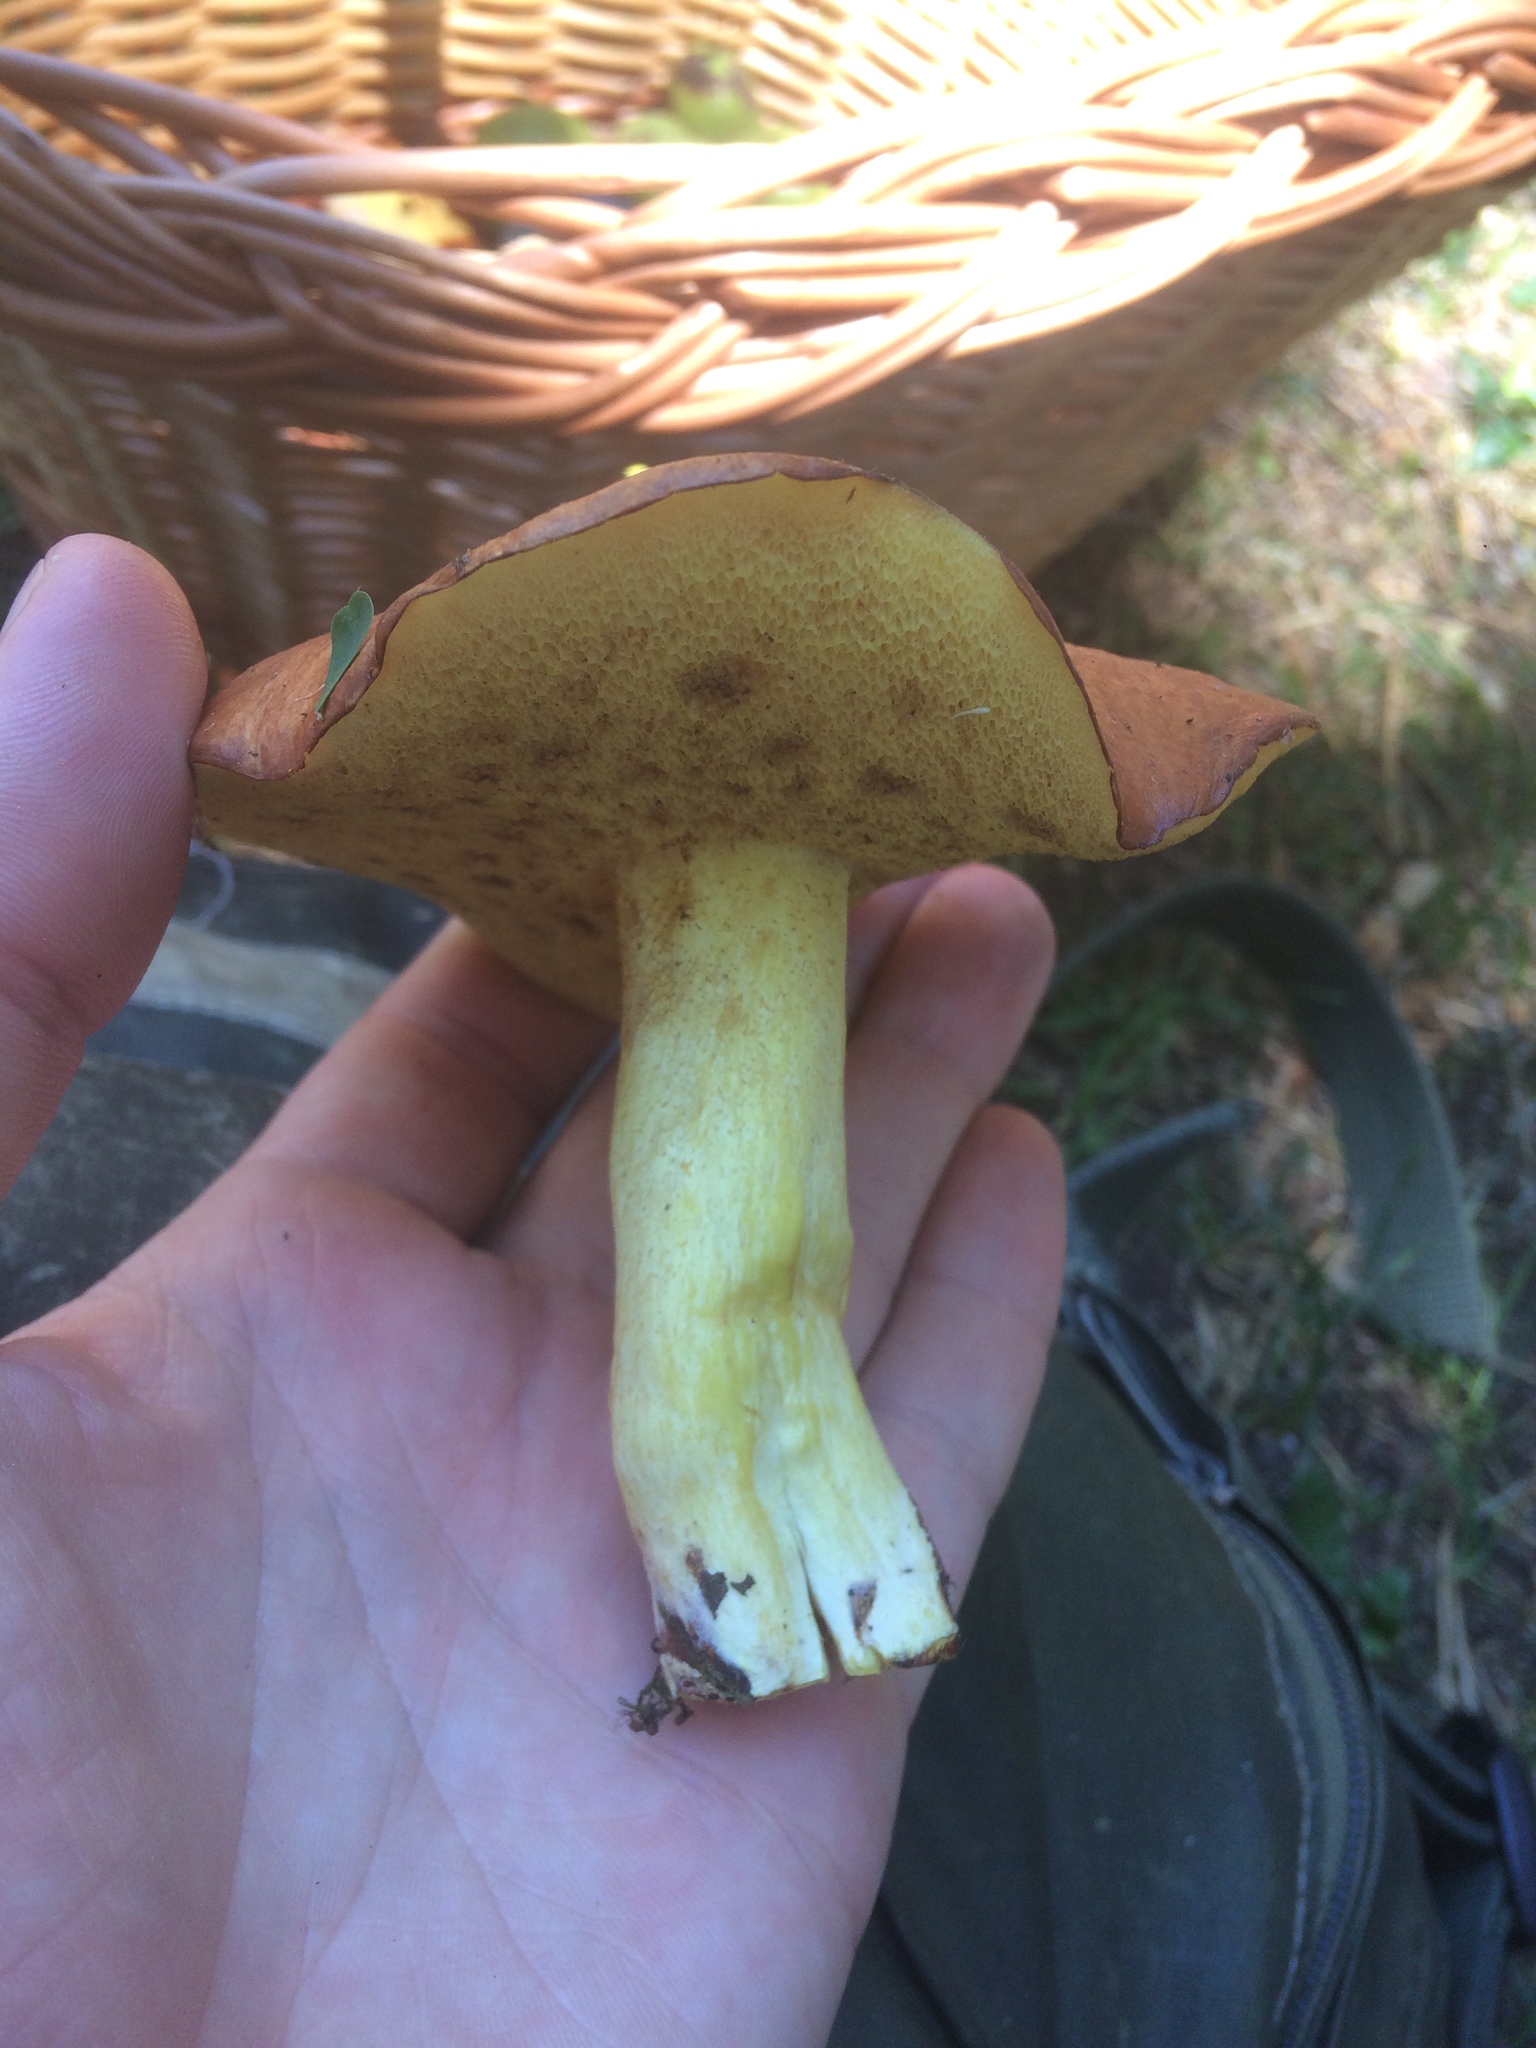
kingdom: Fungi
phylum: Basidiomycota
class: Agaricomycetes
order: Boletales
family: Suillaceae
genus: Suillus
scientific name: Suillus granulatus
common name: Weeping bolete
